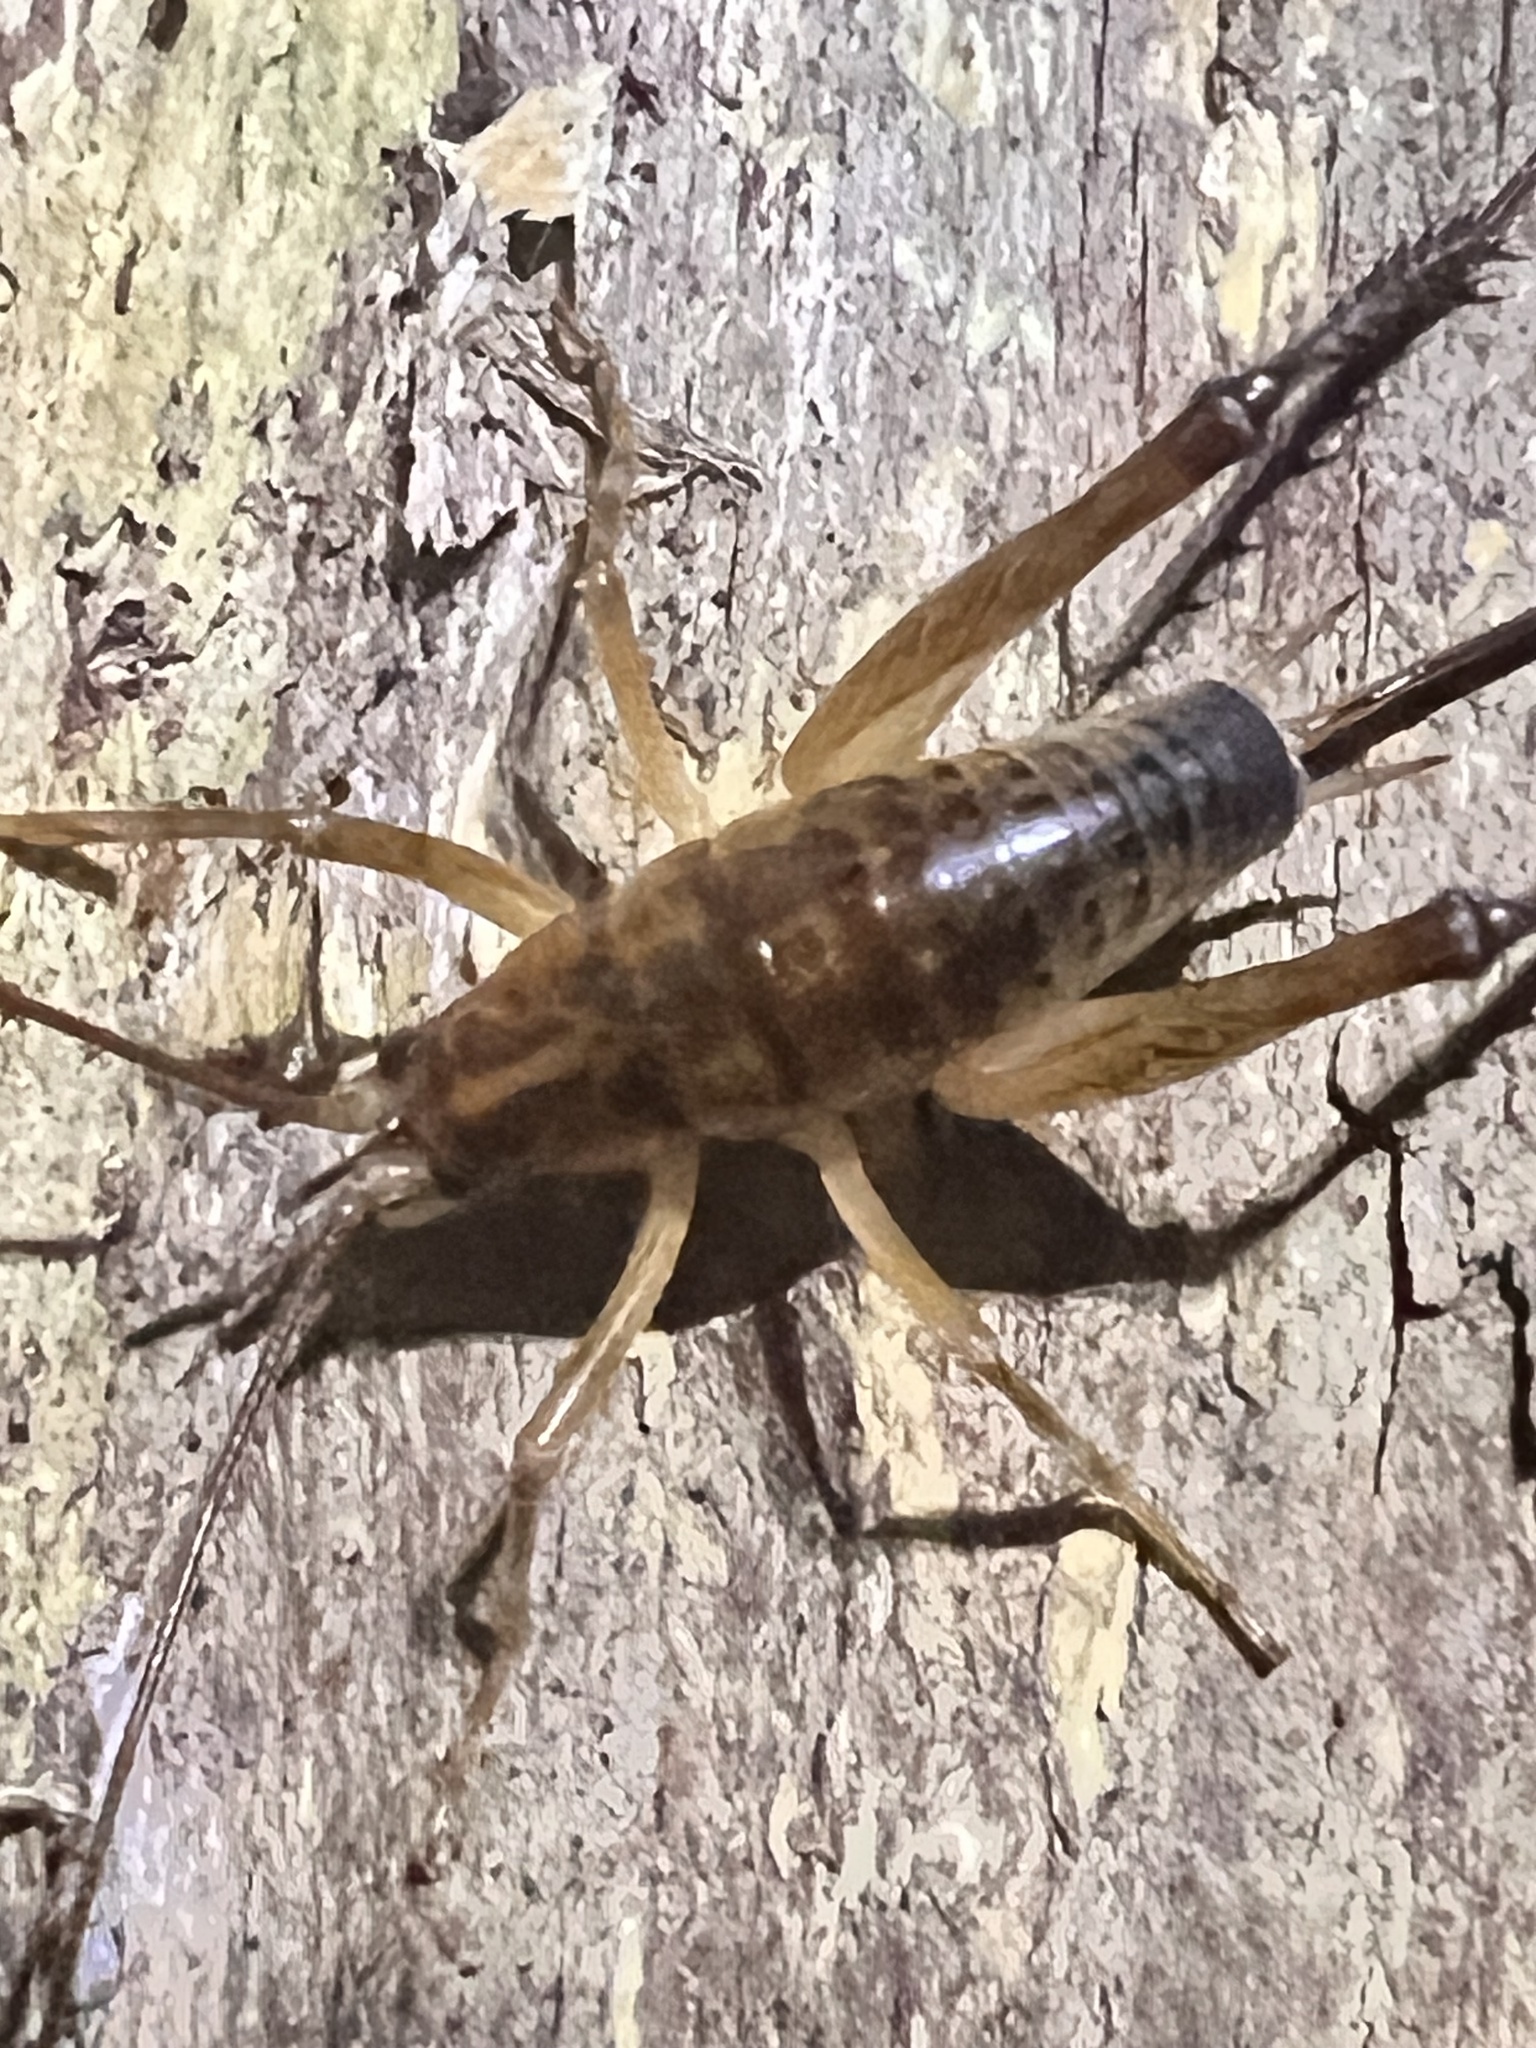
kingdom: Animalia
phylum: Arthropoda
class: Insecta
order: Orthoptera
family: Rhaphidophoridae
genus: Talitropsis
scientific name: Talitropsis sedilloti
